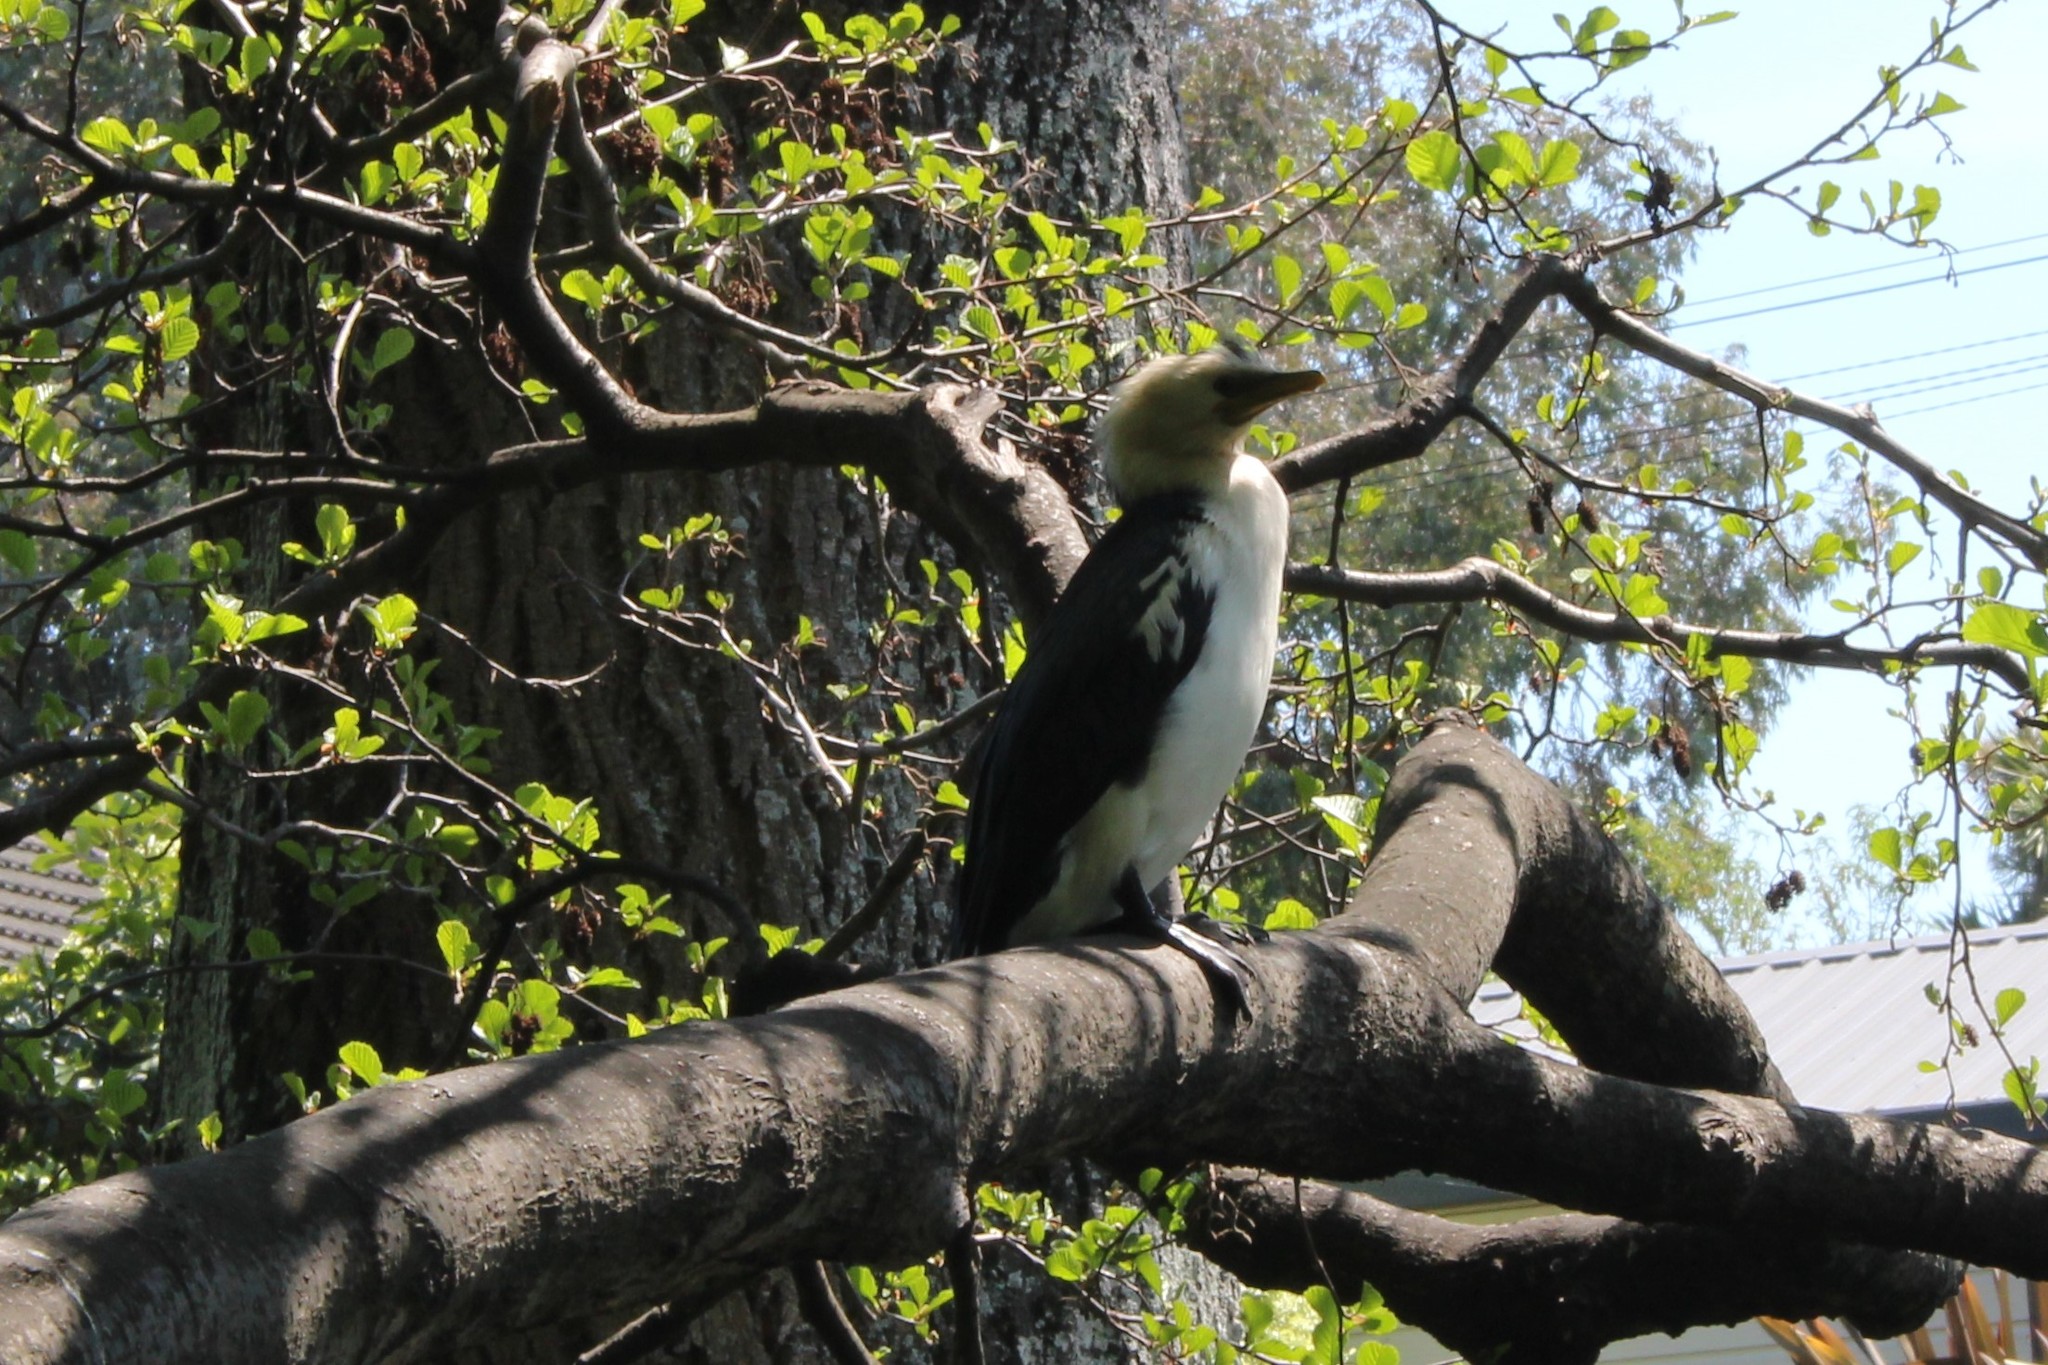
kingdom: Animalia
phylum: Chordata
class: Aves
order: Suliformes
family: Phalacrocoracidae
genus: Microcarbo
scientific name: Microcarbo melanoleucos
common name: Little pied cormorant
